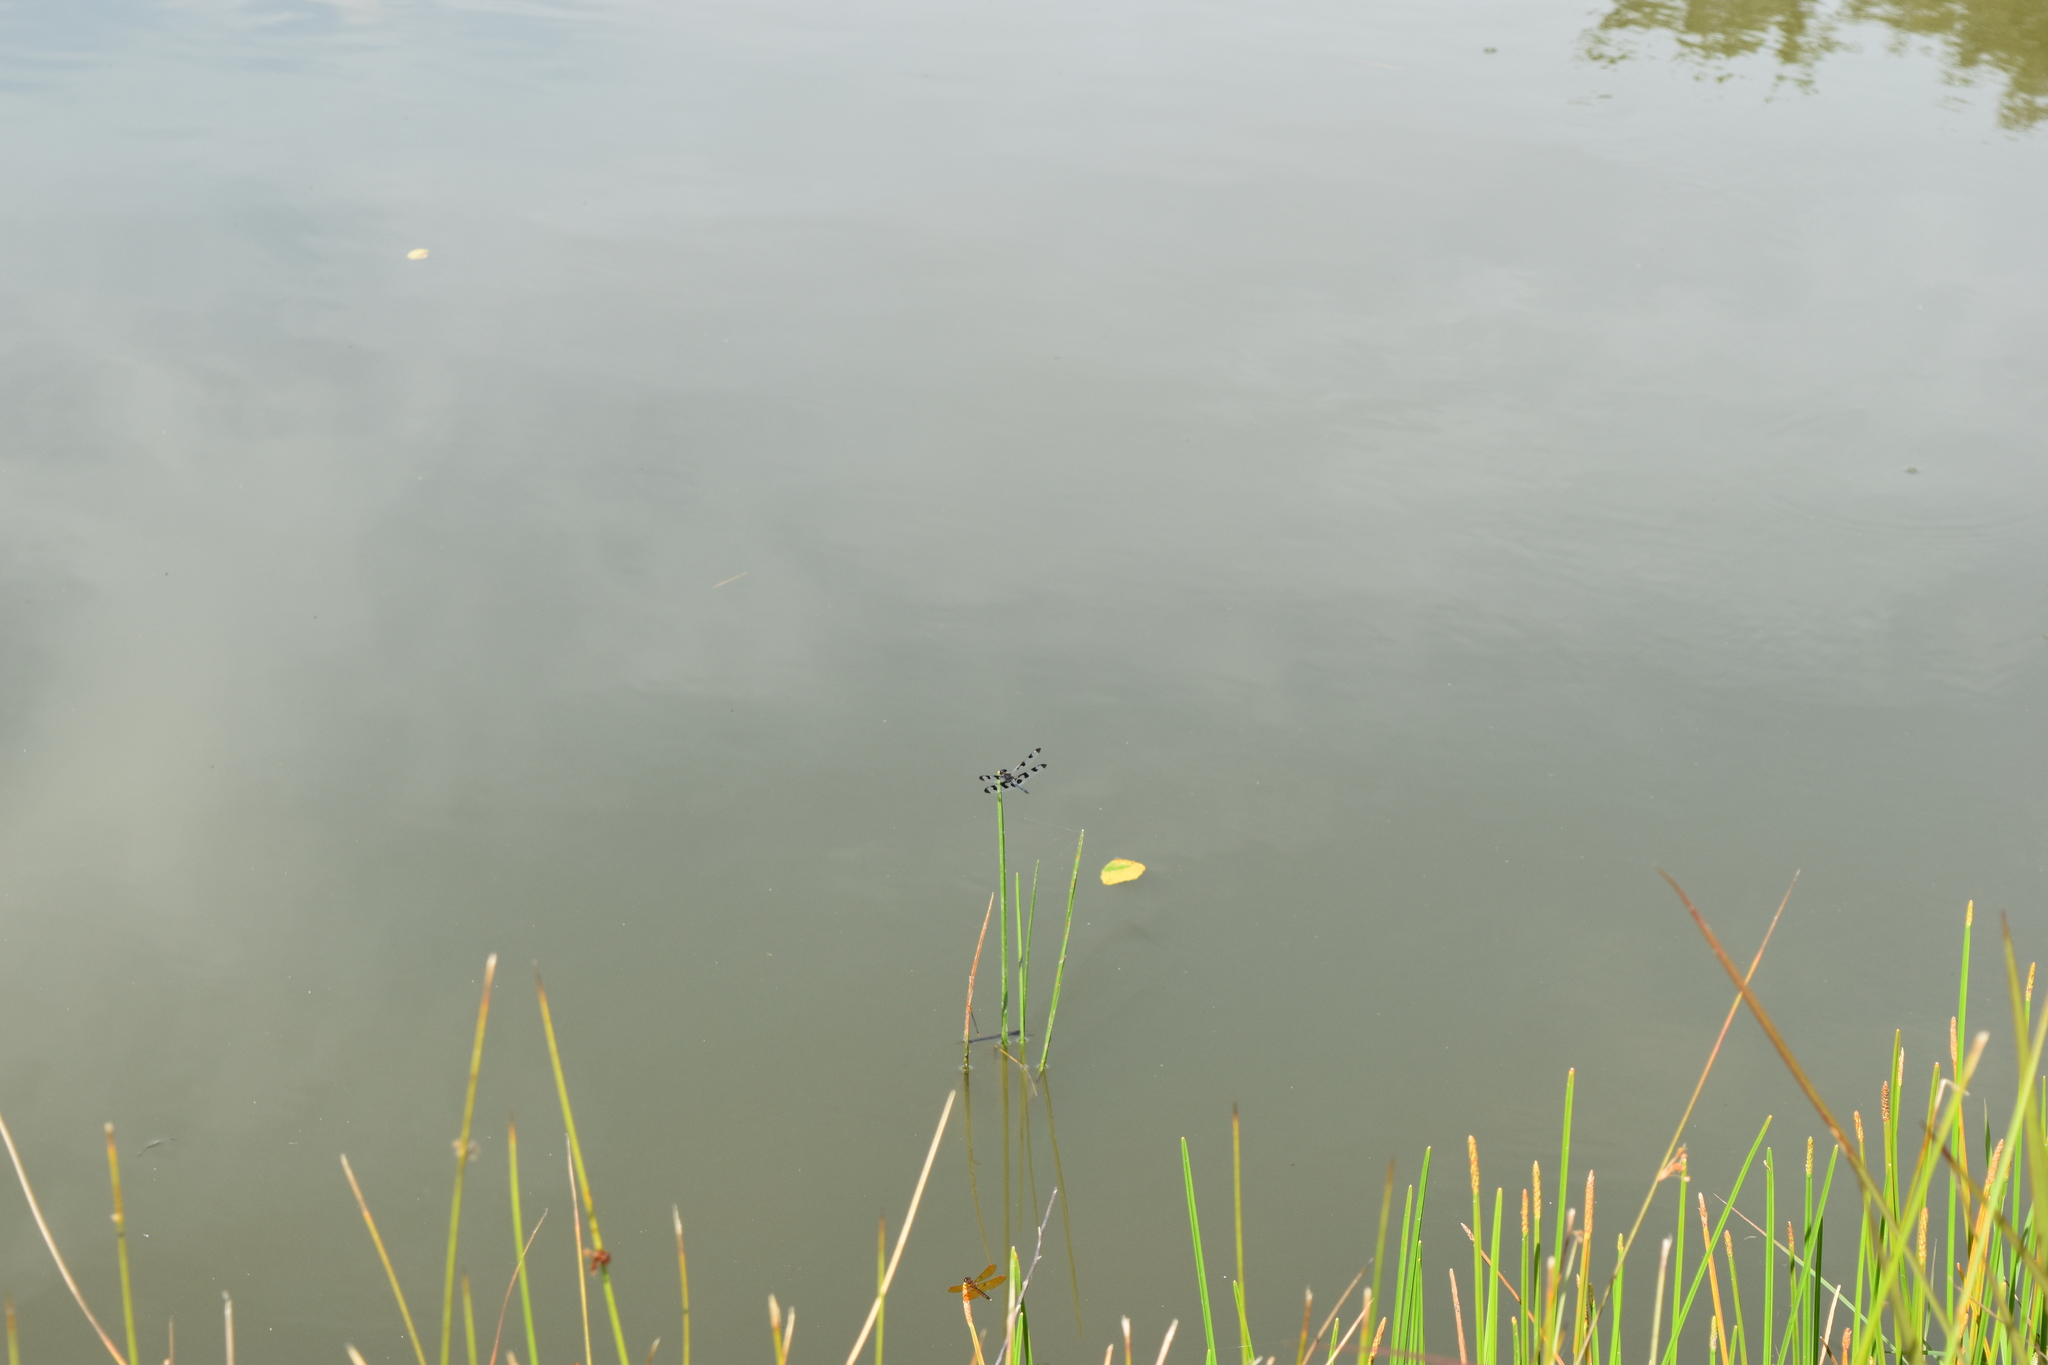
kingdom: Animalia
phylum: Arthropoda
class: Insecta
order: Odonata
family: Libellulidae
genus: Celithemis
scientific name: Celithemis fasciata
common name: Banded pennant
